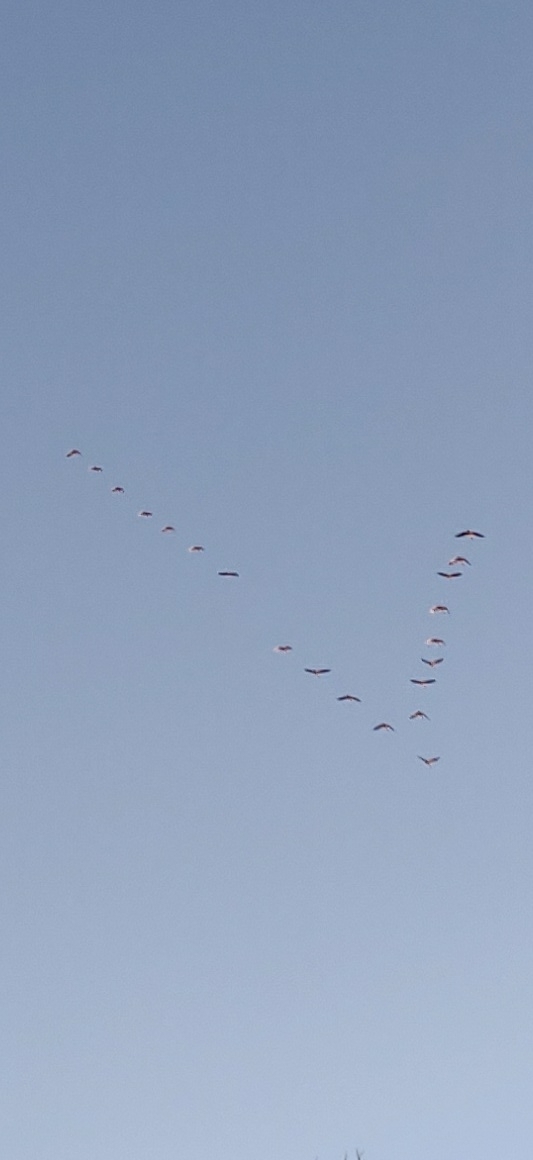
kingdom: Animalia
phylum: Chordata
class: Aves
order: Gruiformes
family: Gruidae
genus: Grus
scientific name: Grus canadensis
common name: Sandhill crane
